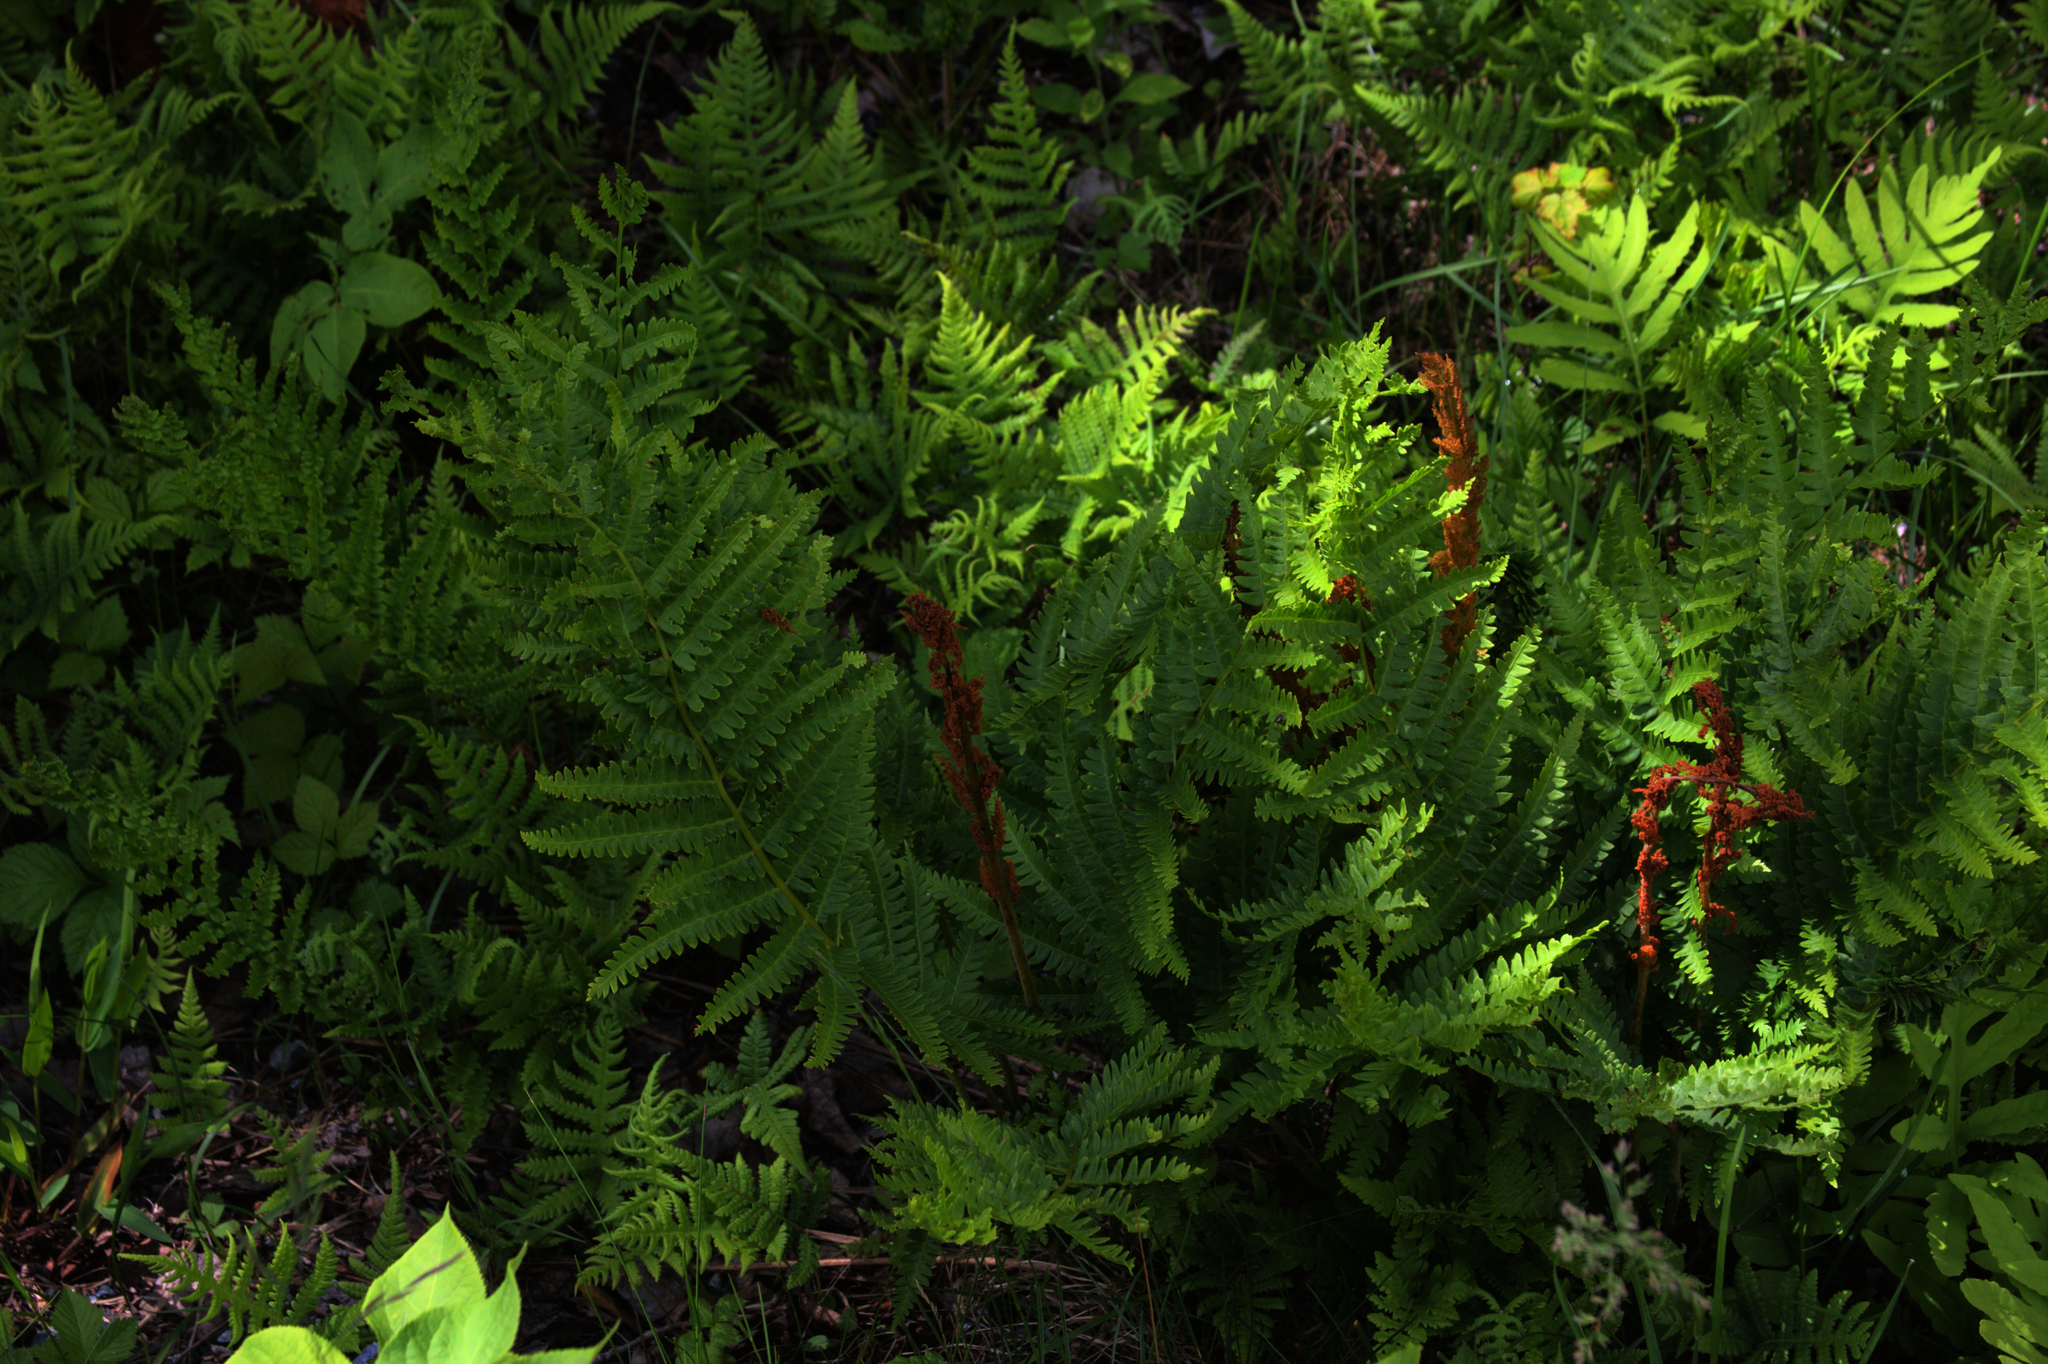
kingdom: Plantae
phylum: Tracheophyta
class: Polypodiopsida
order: Osmundales
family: Osmundaceae
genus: Osmundastrum
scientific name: Osmundastrum cinnamomeum
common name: Cinnamon fern
